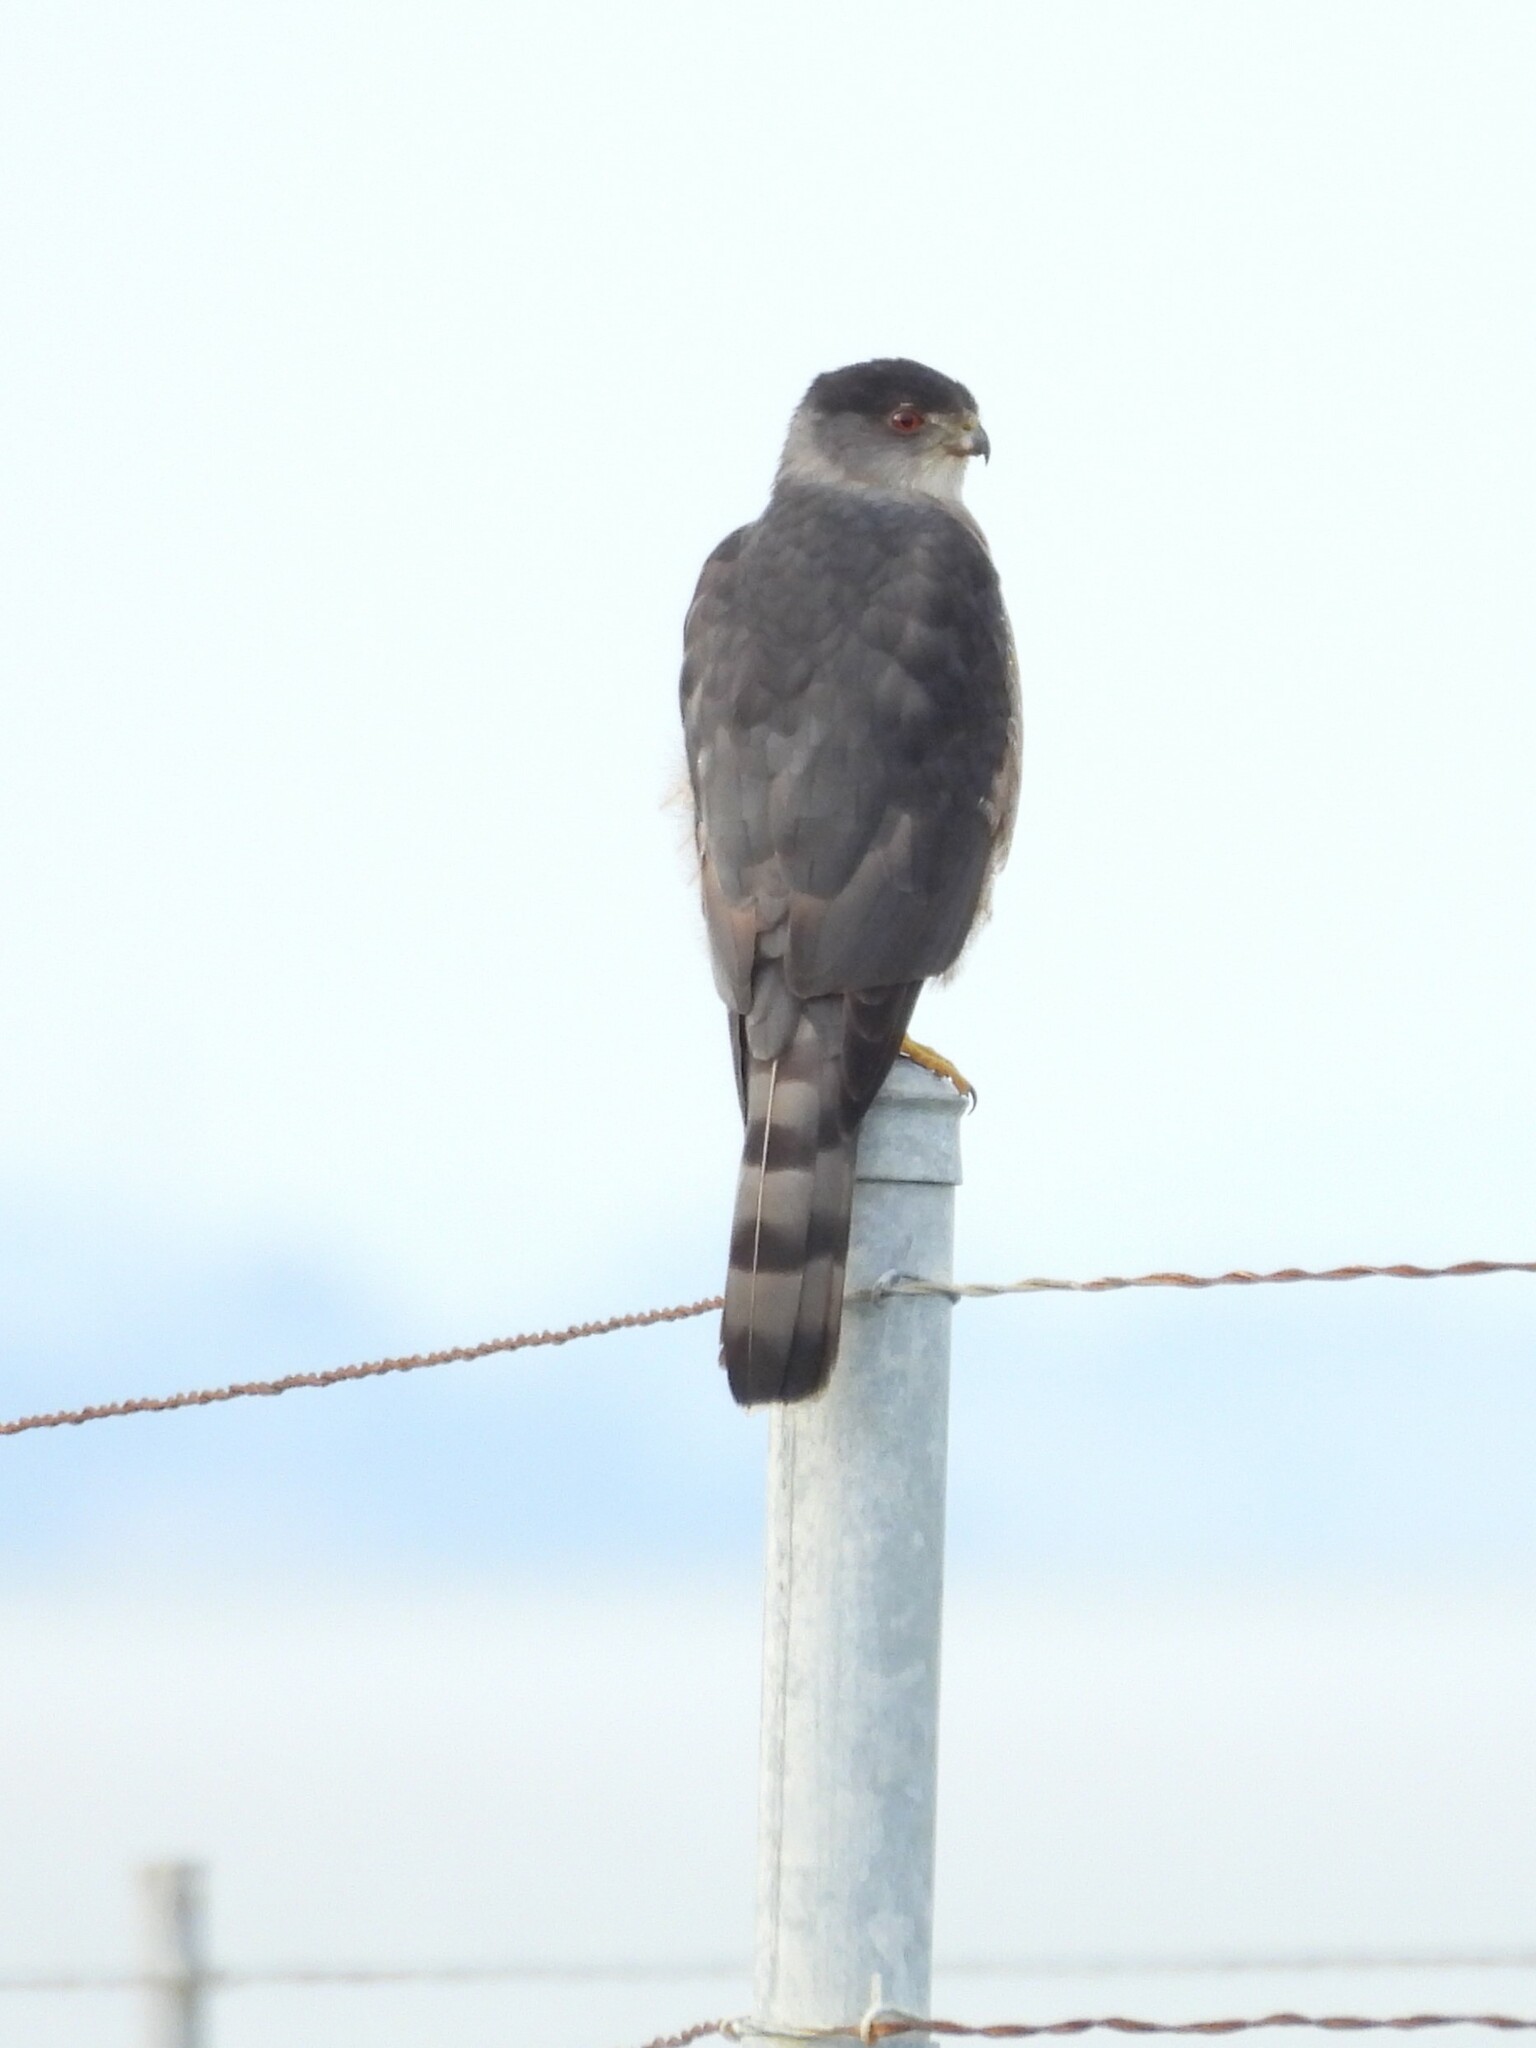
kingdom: Animalia
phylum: Chordata
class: Aves
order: Accipitriformes
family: Accipitridae
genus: Accipiter
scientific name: Accipiter cooperii
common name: Cooper's hawk
